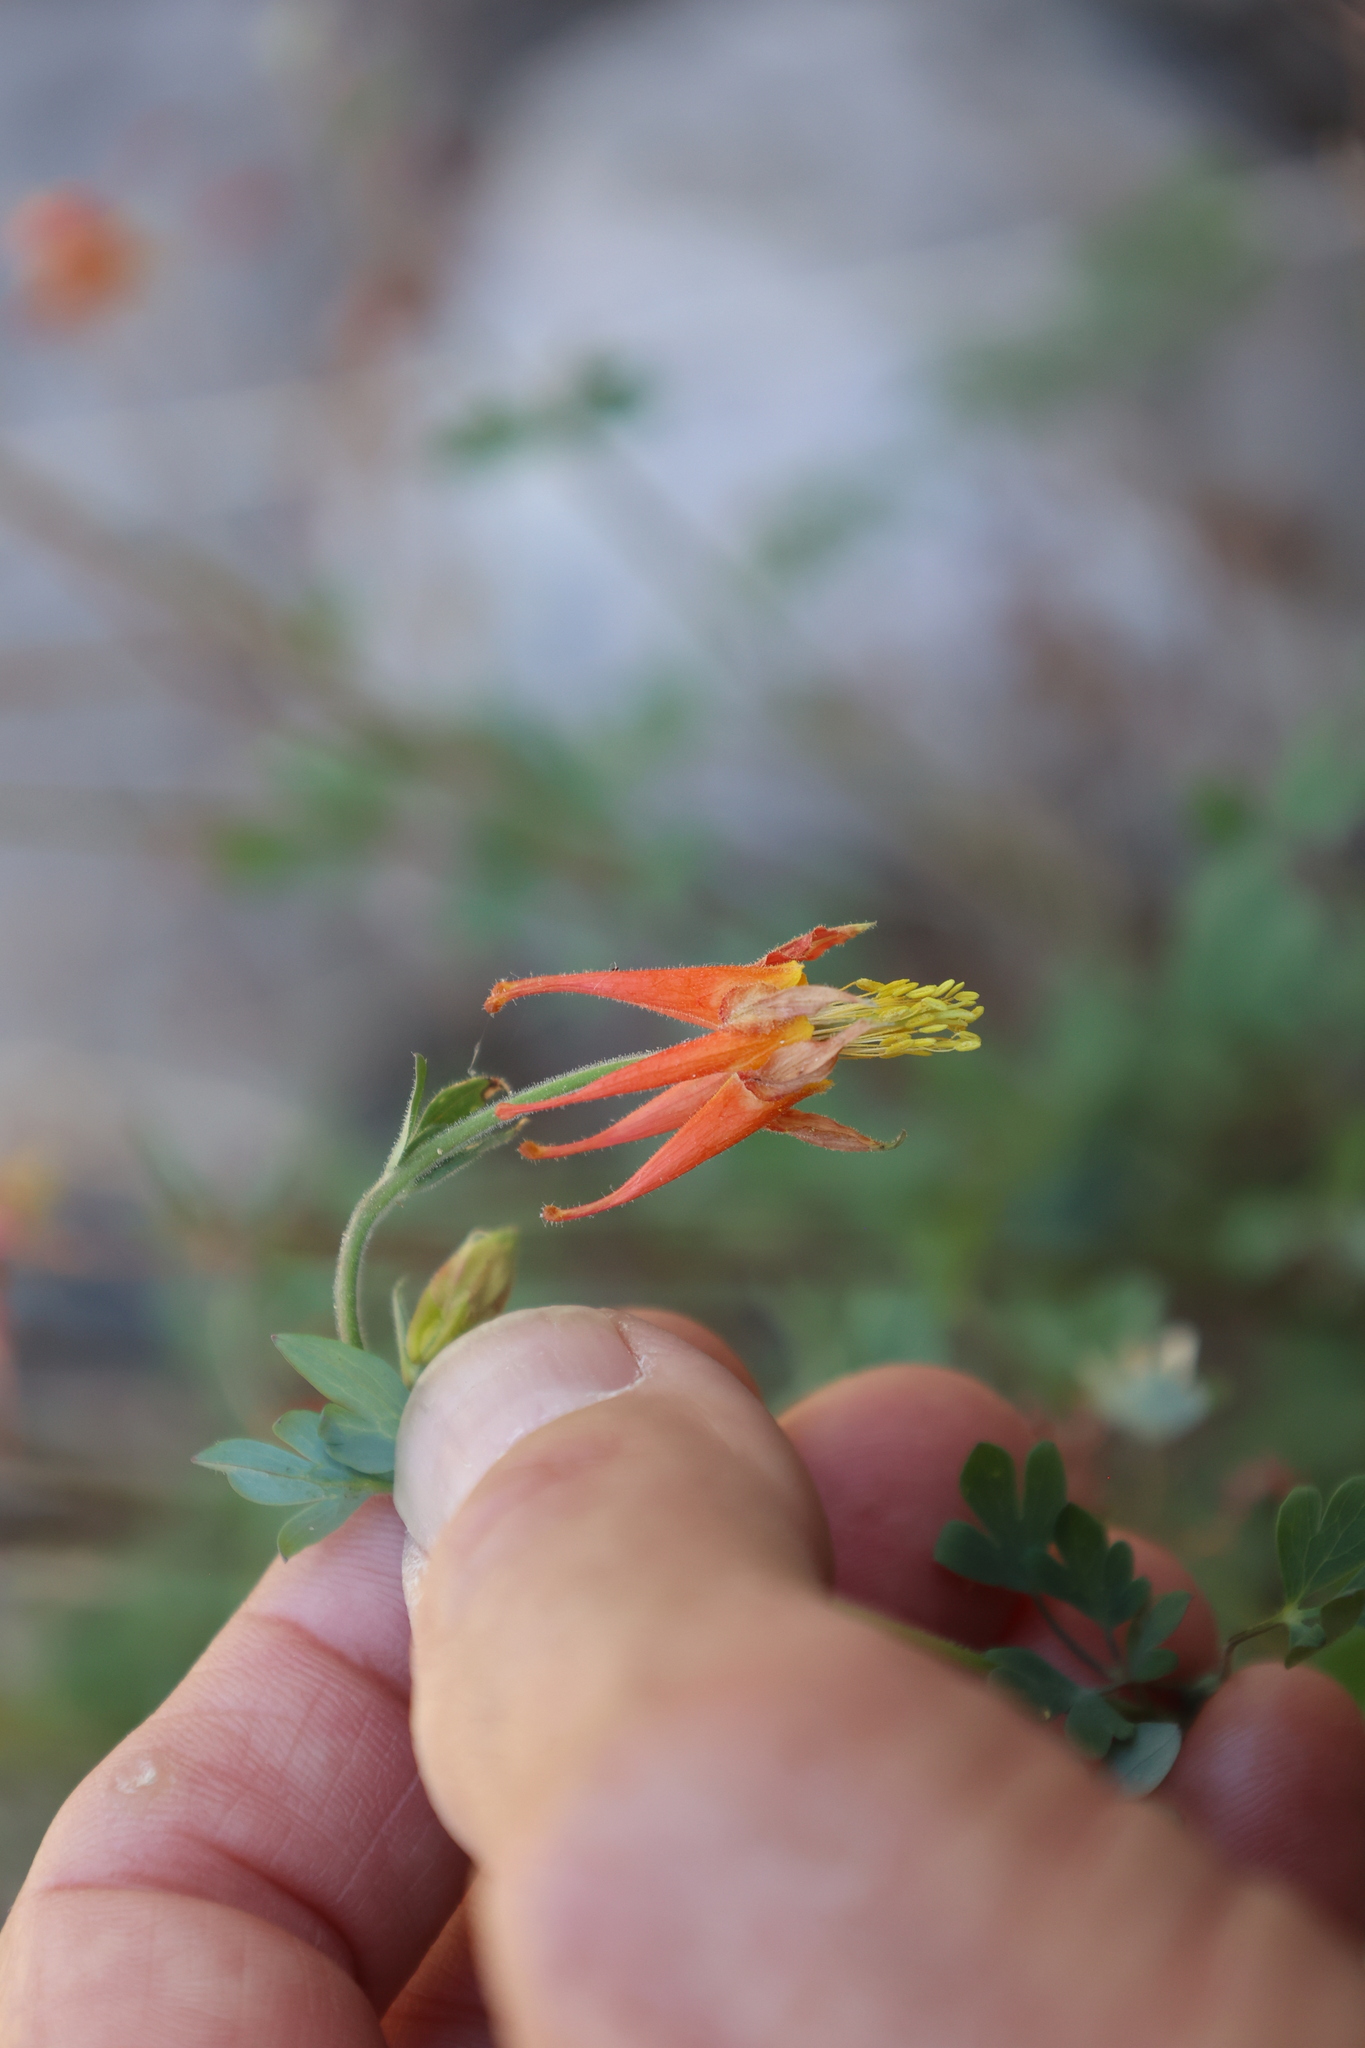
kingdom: Plantae
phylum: Tracheophyta
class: Magnoliopsida
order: Ranunculales
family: Ranunculaceae
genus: Aquilegia
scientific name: Aquilegia desertorum
